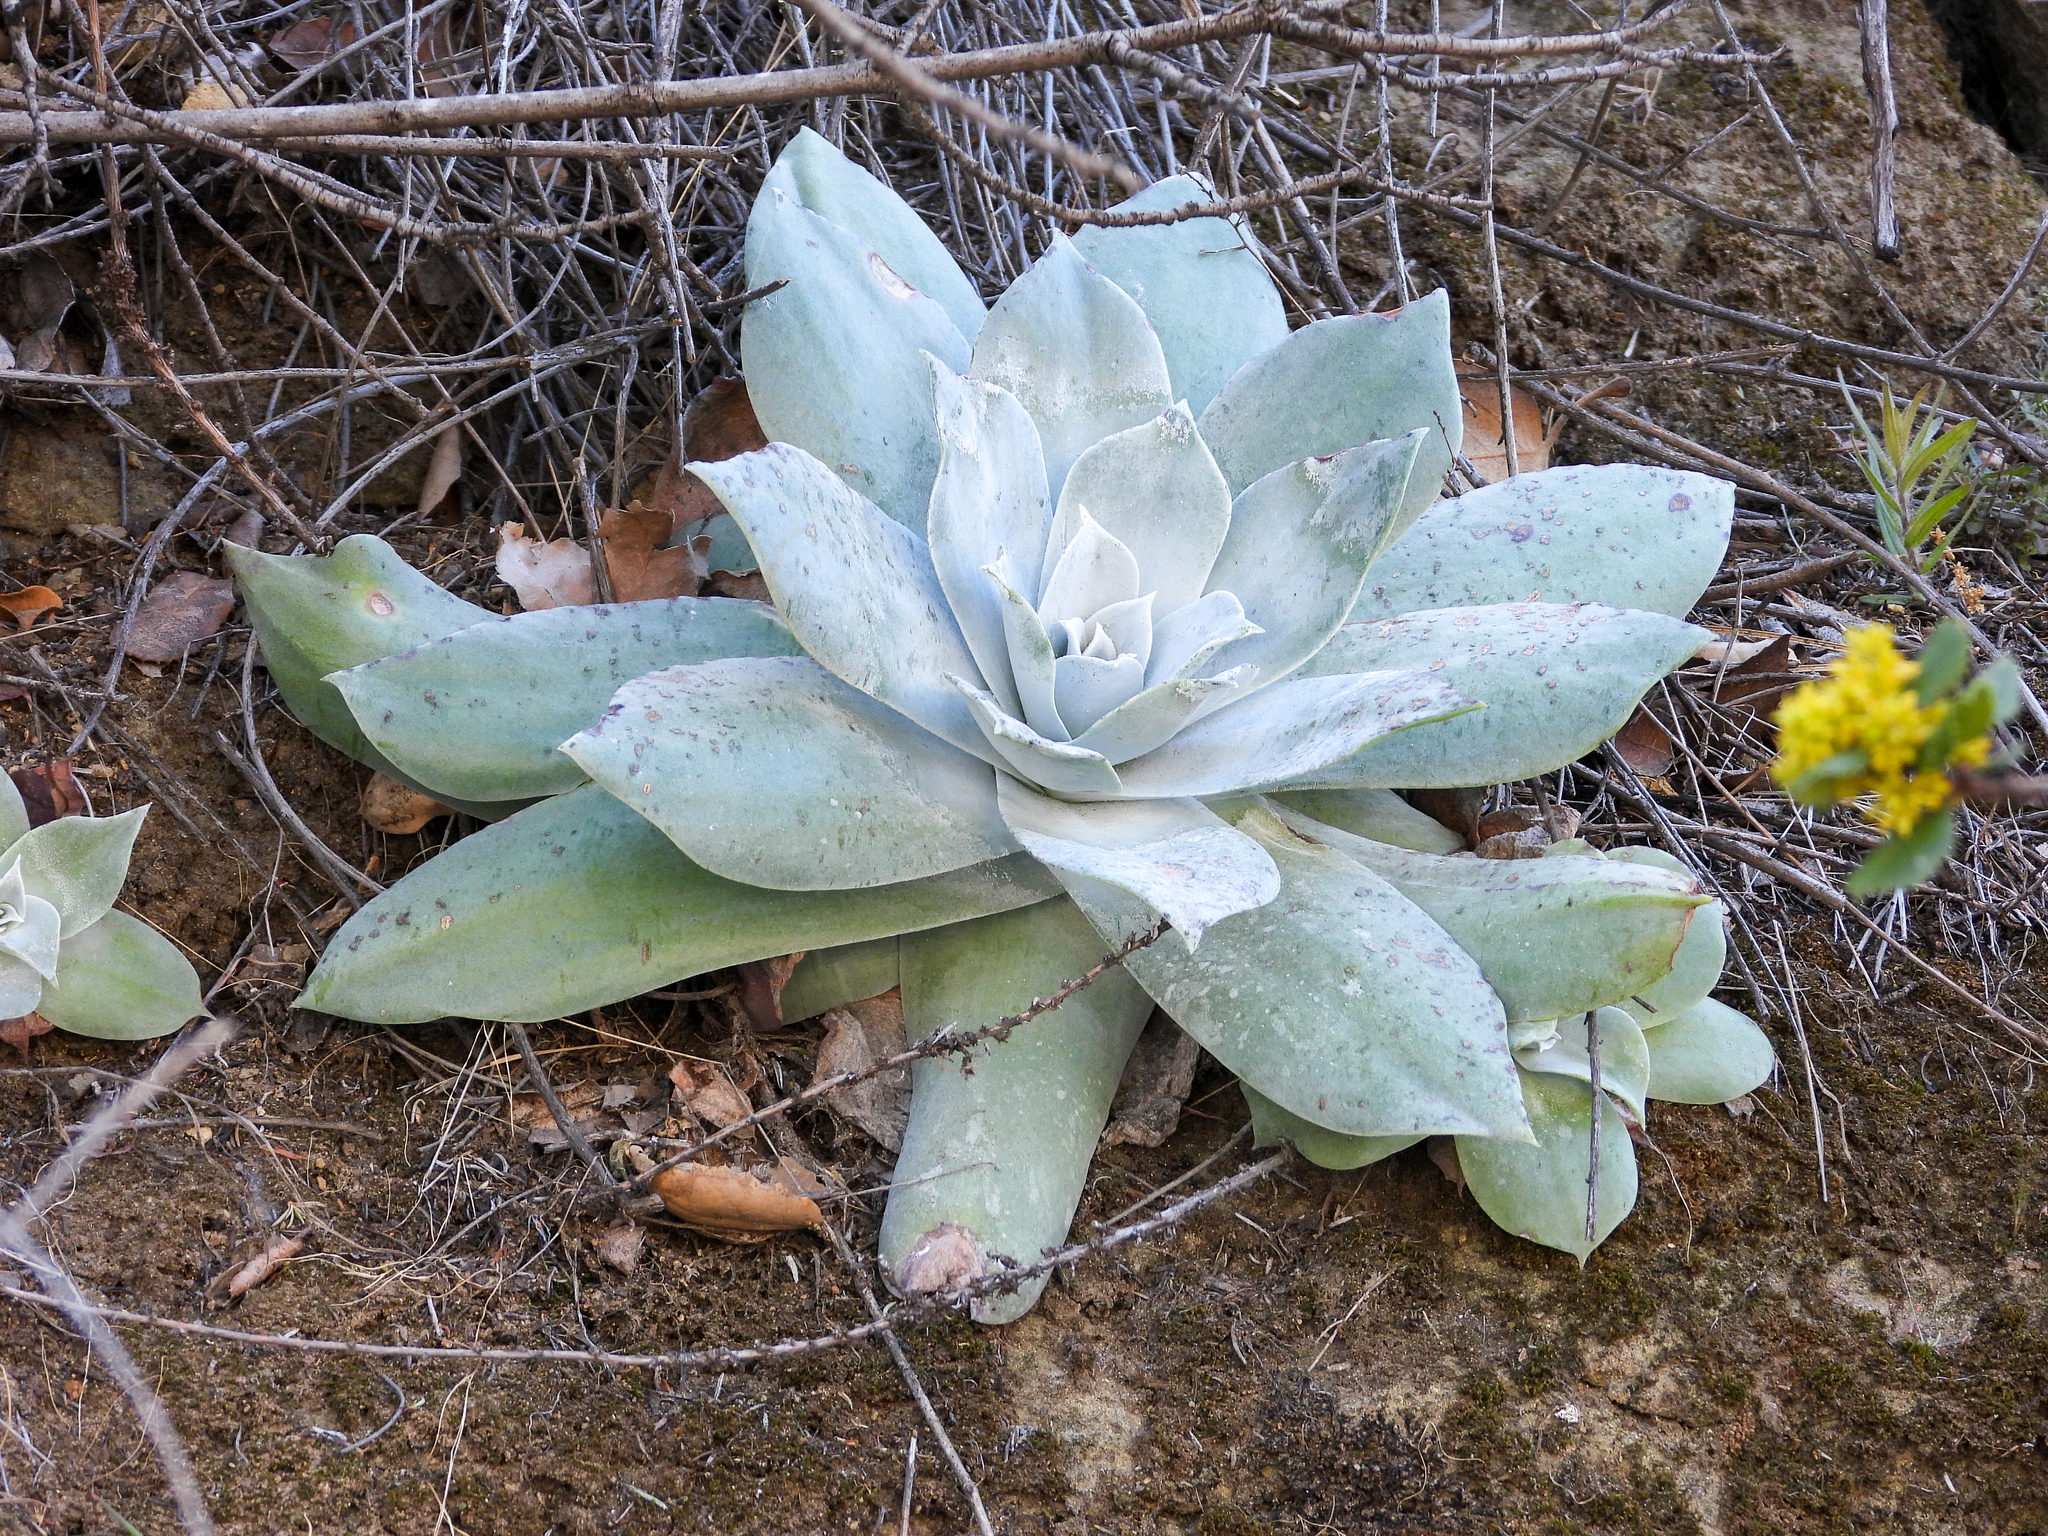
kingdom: Plantae
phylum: Tracheophyta
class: Magnoliopsida
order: Saxifragales
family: Crassulaceae
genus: Dudleya
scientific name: Dudleya pulverulenta
